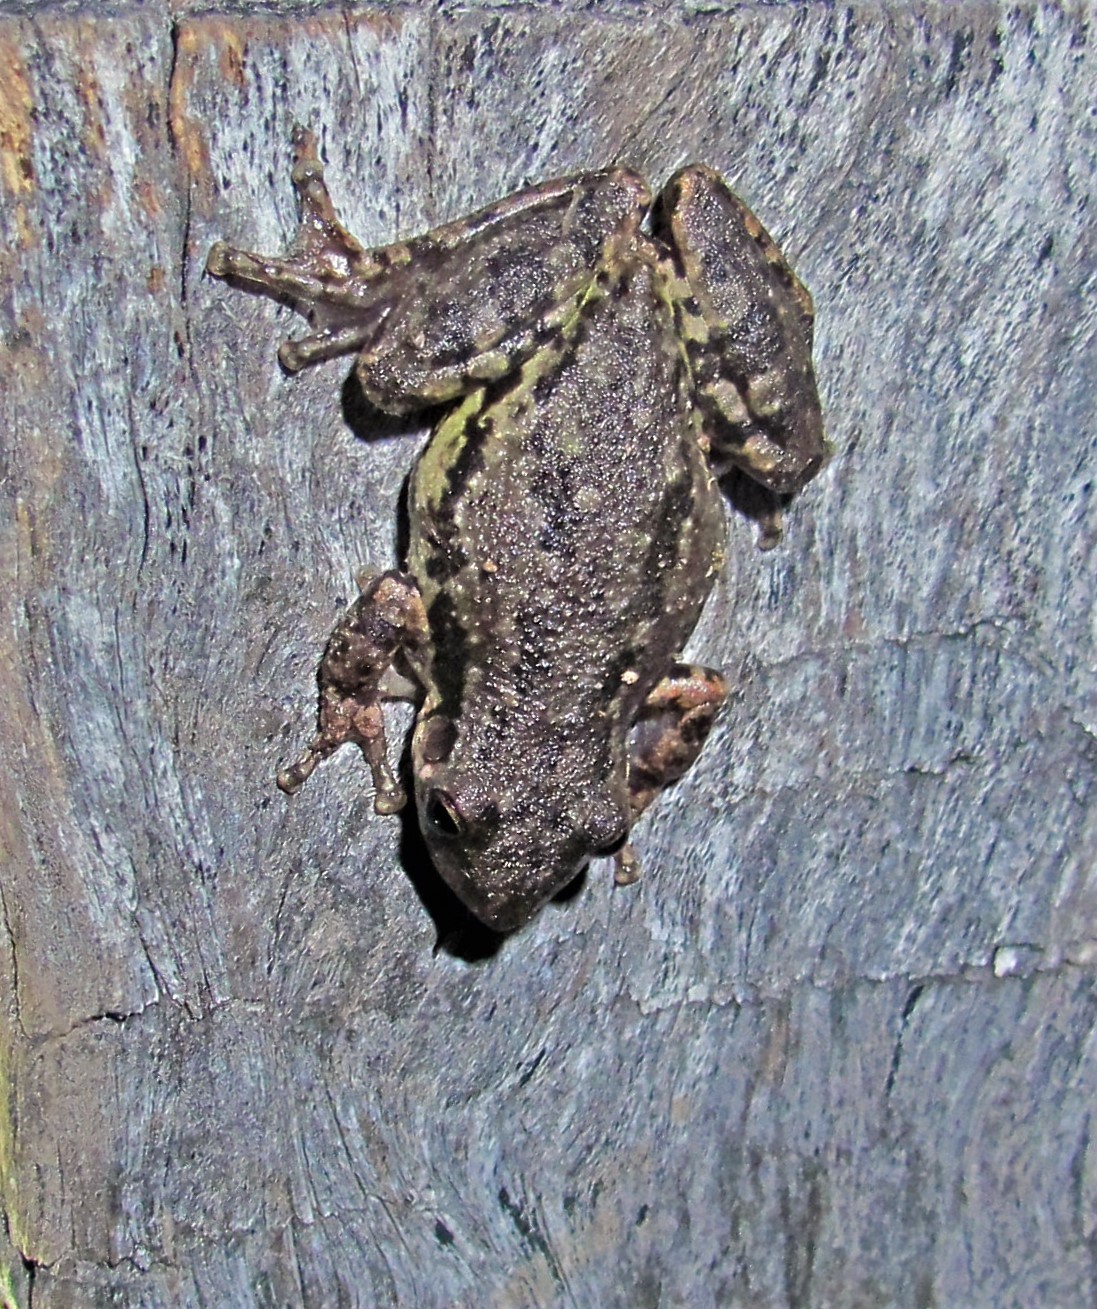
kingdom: Animalia
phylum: Chordata
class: Amphibia
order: Anura
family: Hylidae
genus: Scinax
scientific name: Scinax nasicus
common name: Lesser snouted treefrog
